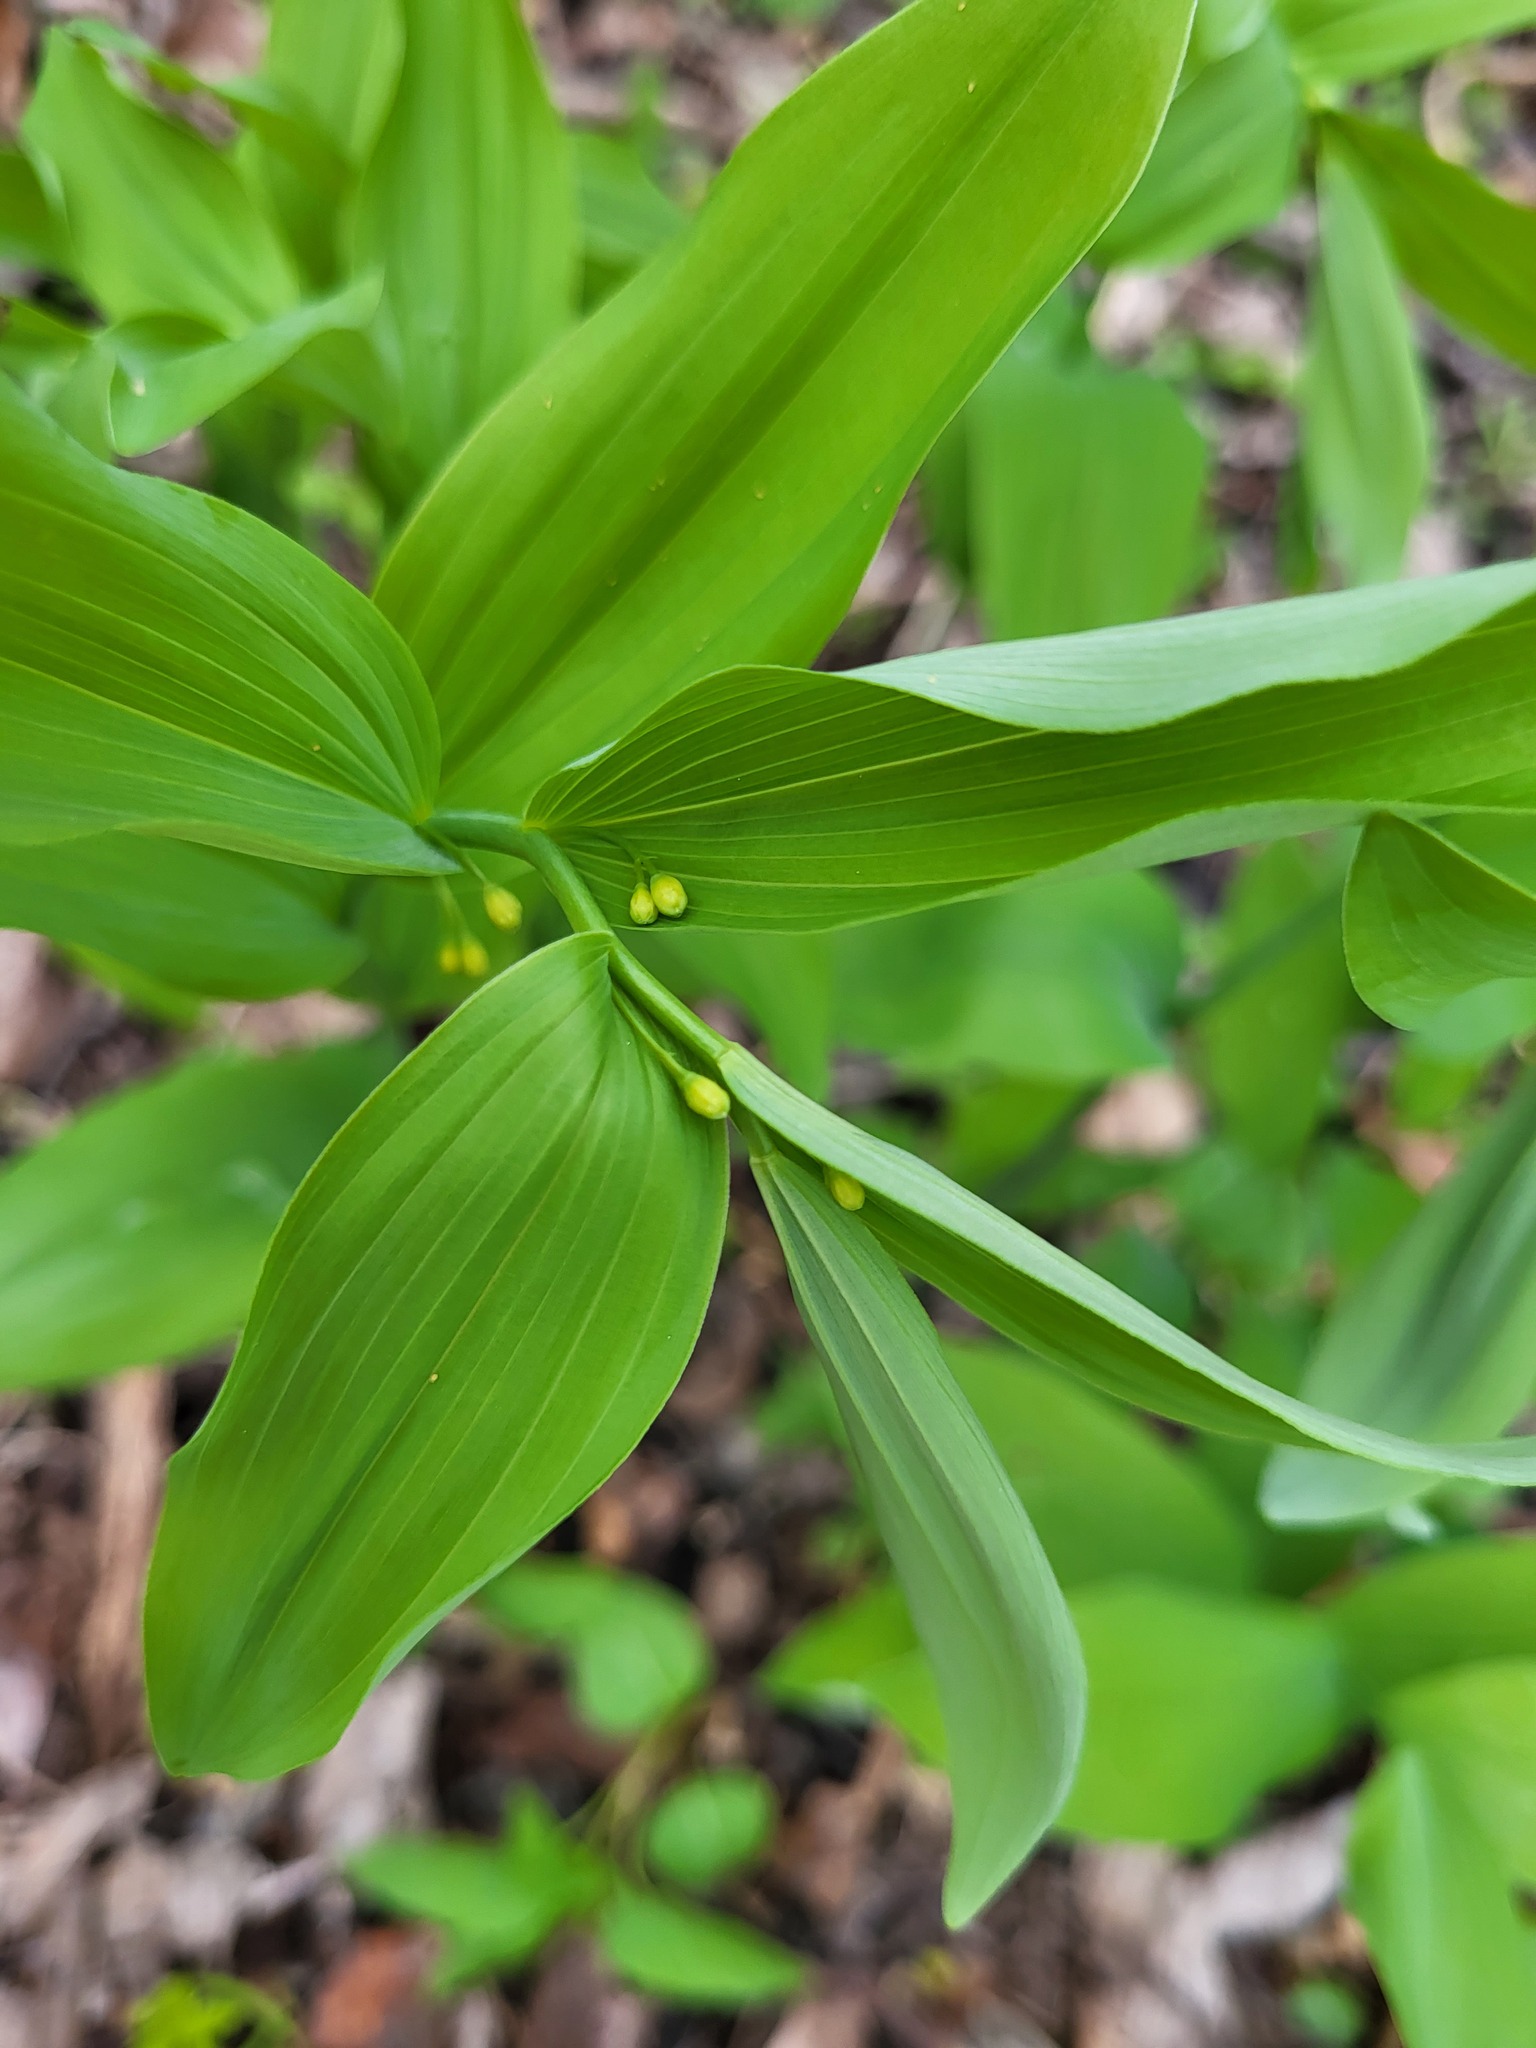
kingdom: Plantae
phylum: Tracheophyta
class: Liliopsida
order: Asparagales
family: Asparagaceae
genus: Polygonatum
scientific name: Polygonatum biflorum
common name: American solomon's-seal
